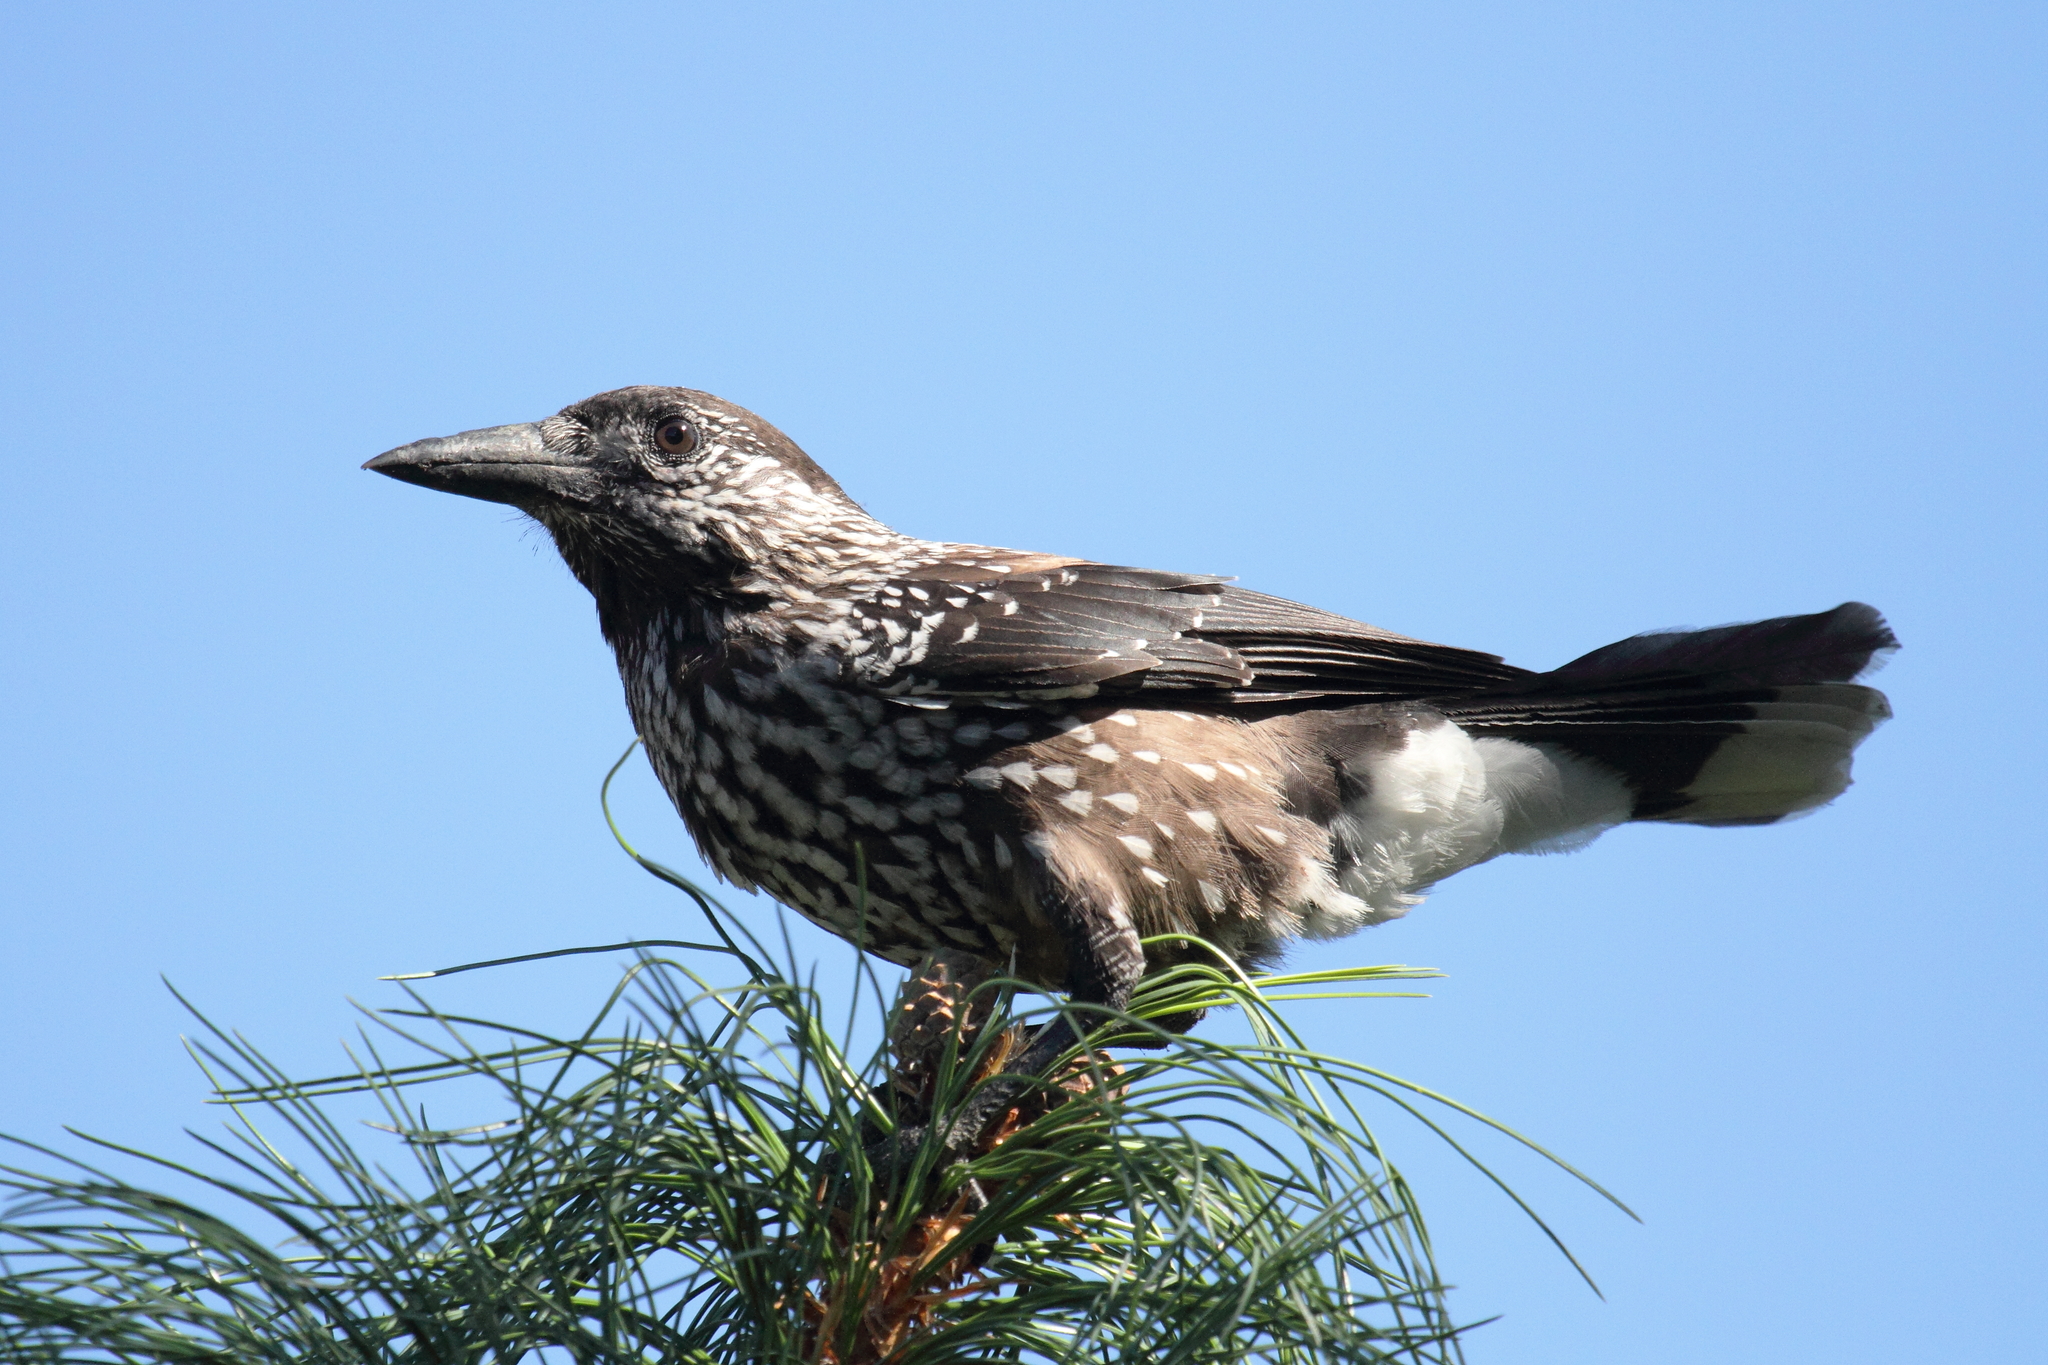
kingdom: Animalia
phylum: Chordata
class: Aves
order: Passeriformes
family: Corvidae
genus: Nucifraga
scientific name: Nucifraga caryocatactes
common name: Spotted nutcracker
